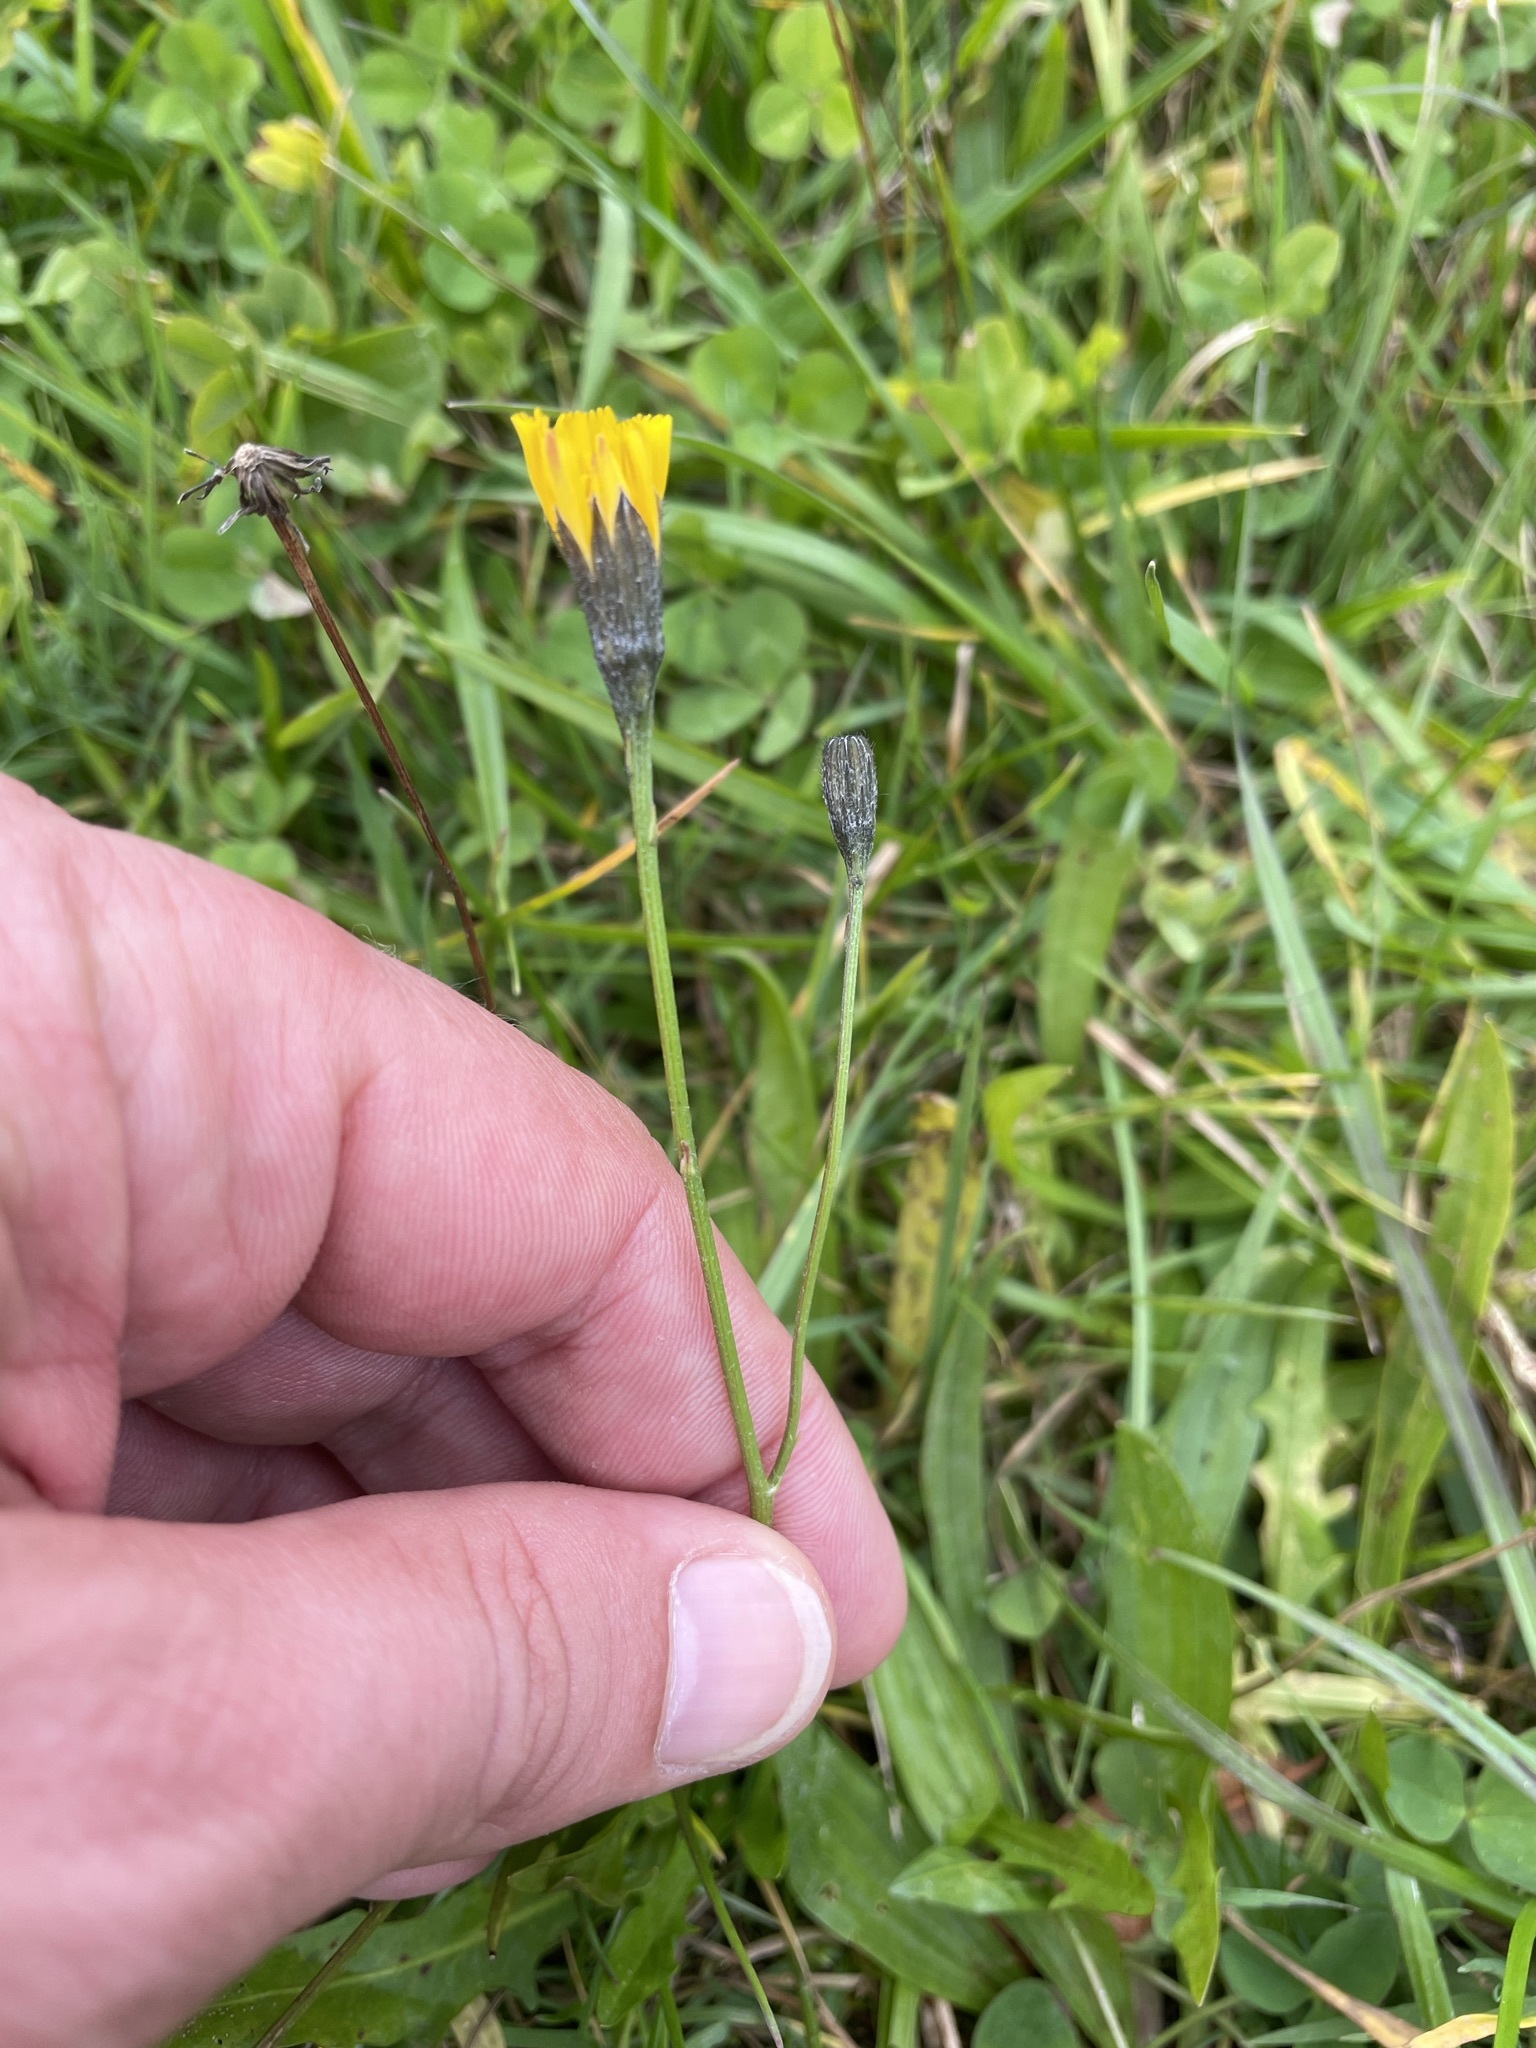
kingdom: Plantae
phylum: Tracheophyta
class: Magnoliopsida
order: Asterales
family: Asteraceae
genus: Scorzoneroides
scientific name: Scorzoneroides autumnalis
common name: Autumn hawkbit
